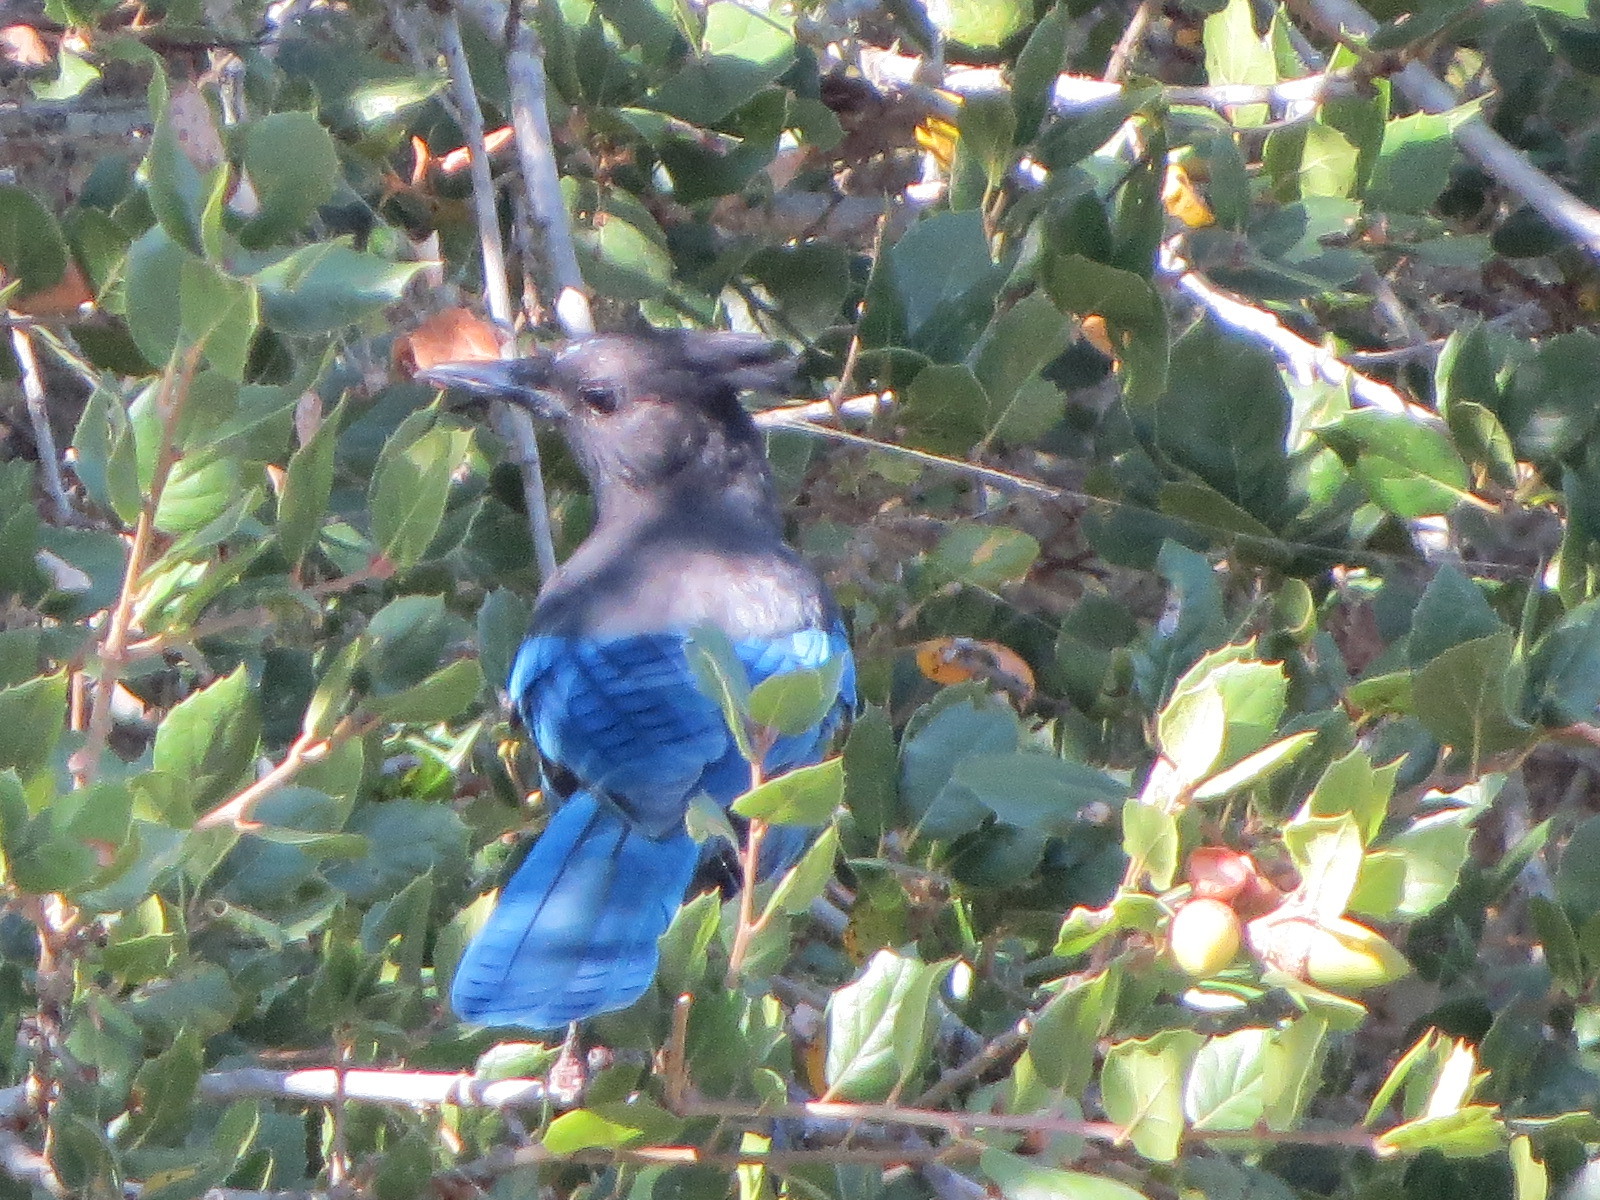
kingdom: Animalia
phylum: Chordata
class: Aves
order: Passeriformes
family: Corvidae
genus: Cyanocitta
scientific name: Cyanocitta stelleri
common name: Steller's jay
